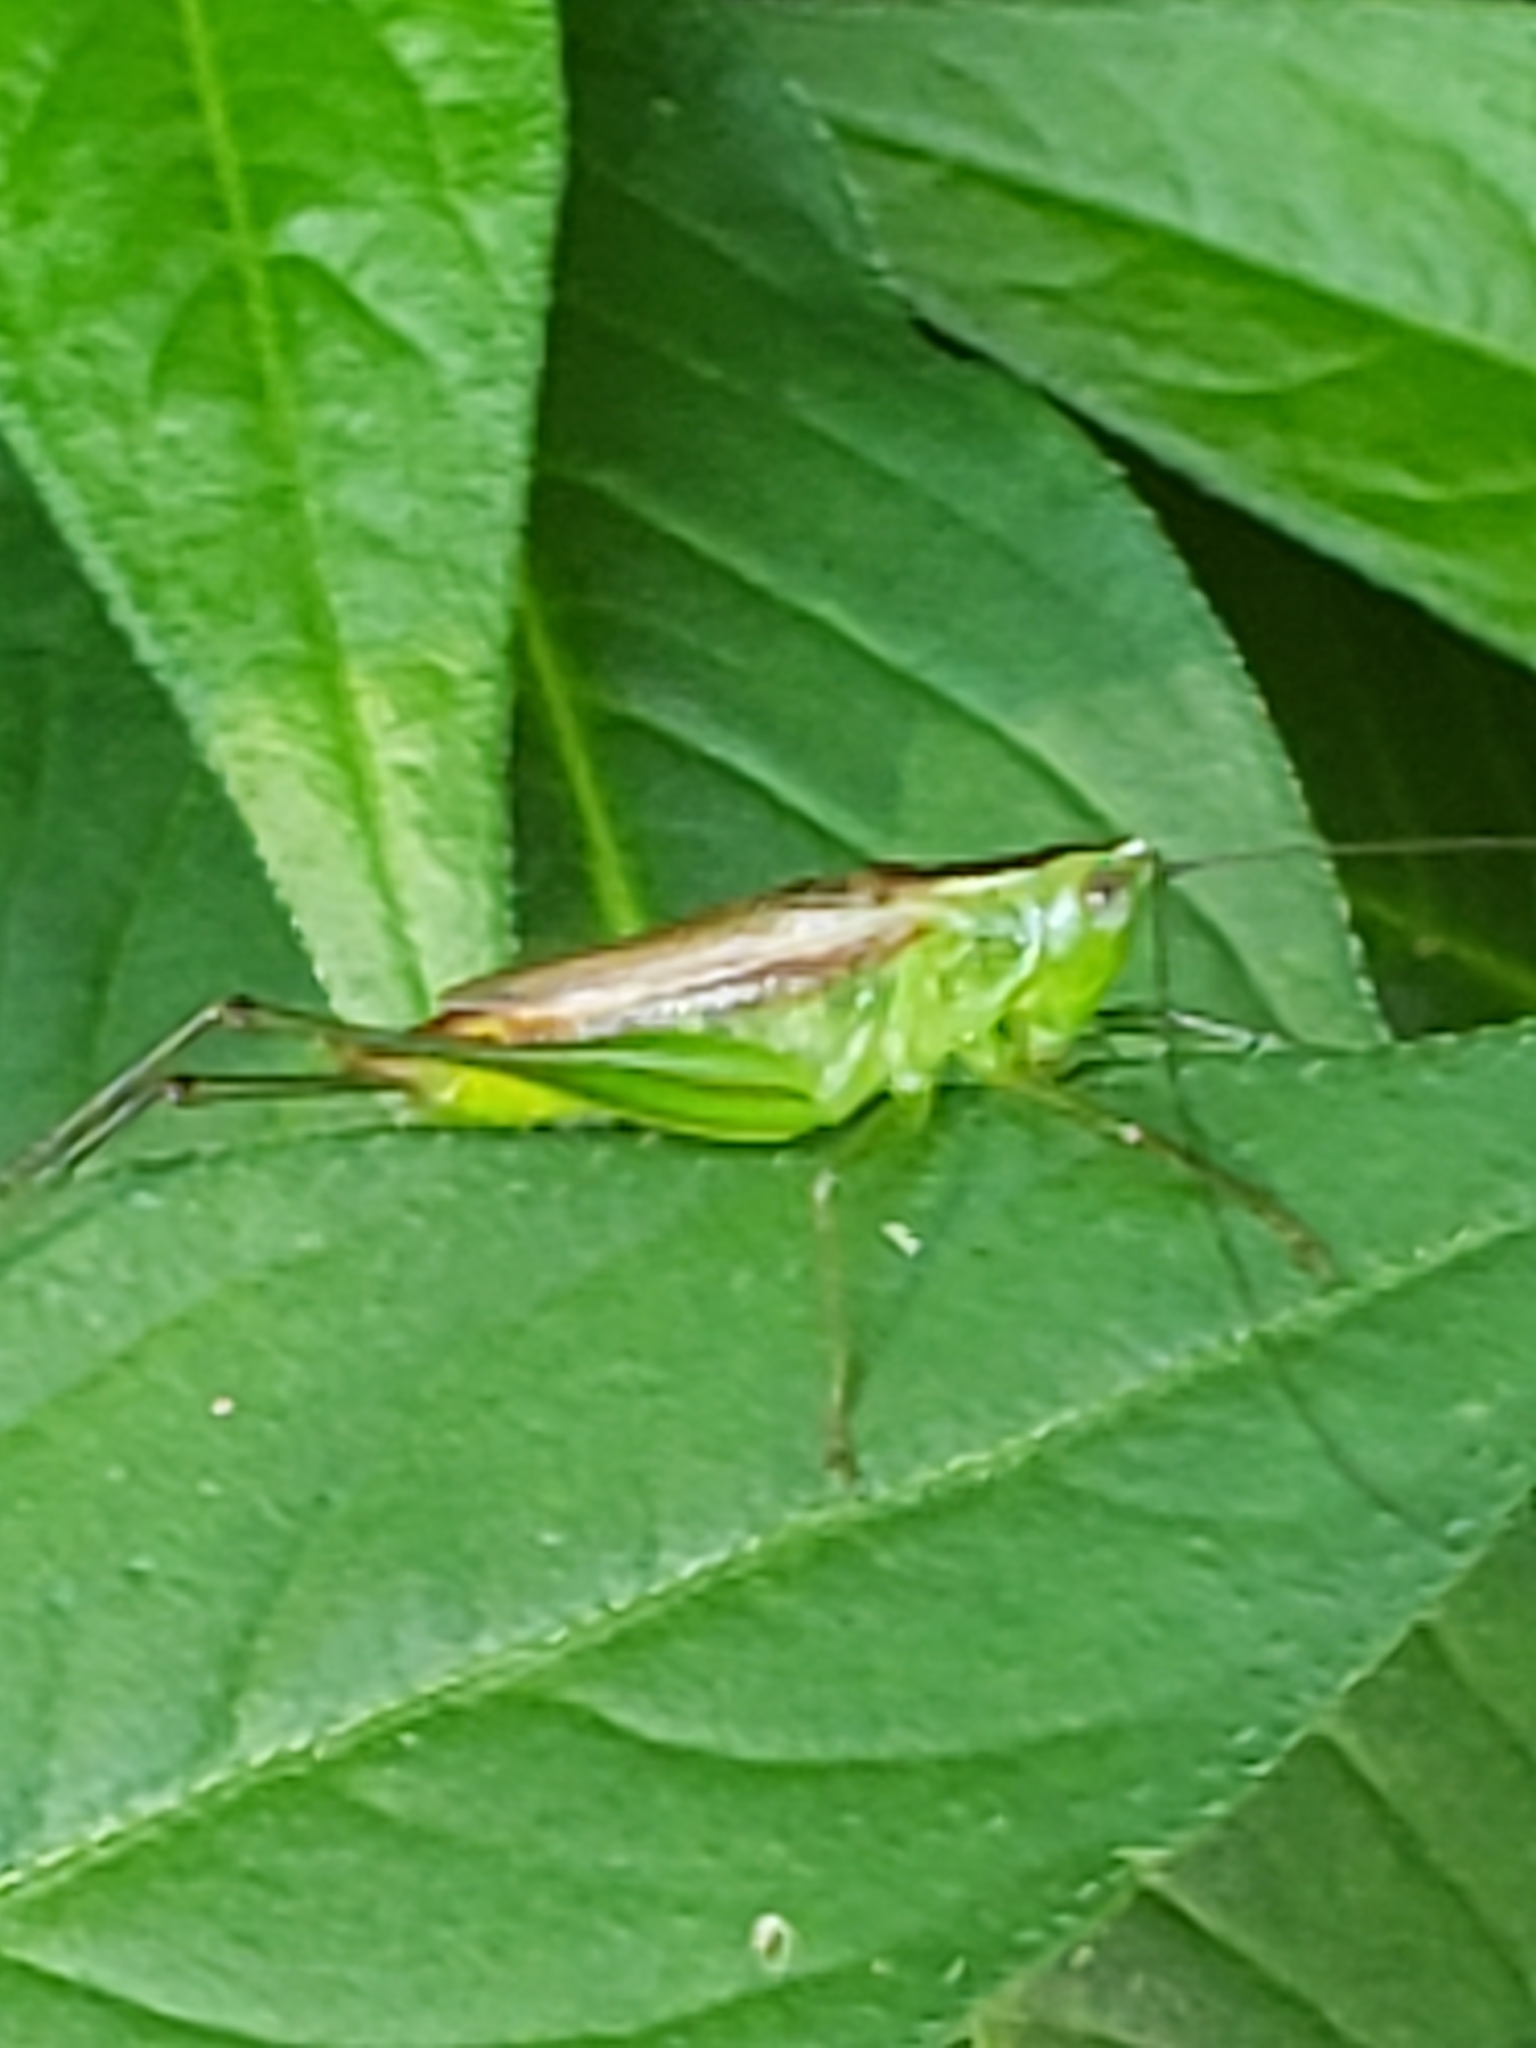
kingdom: Animalia
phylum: Arthropoda
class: Insecta
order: Orthoptera
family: Tettigoniidae
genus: Conocephalus
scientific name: Conocephalus brevipennis
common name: Short-winged meadow katydid
